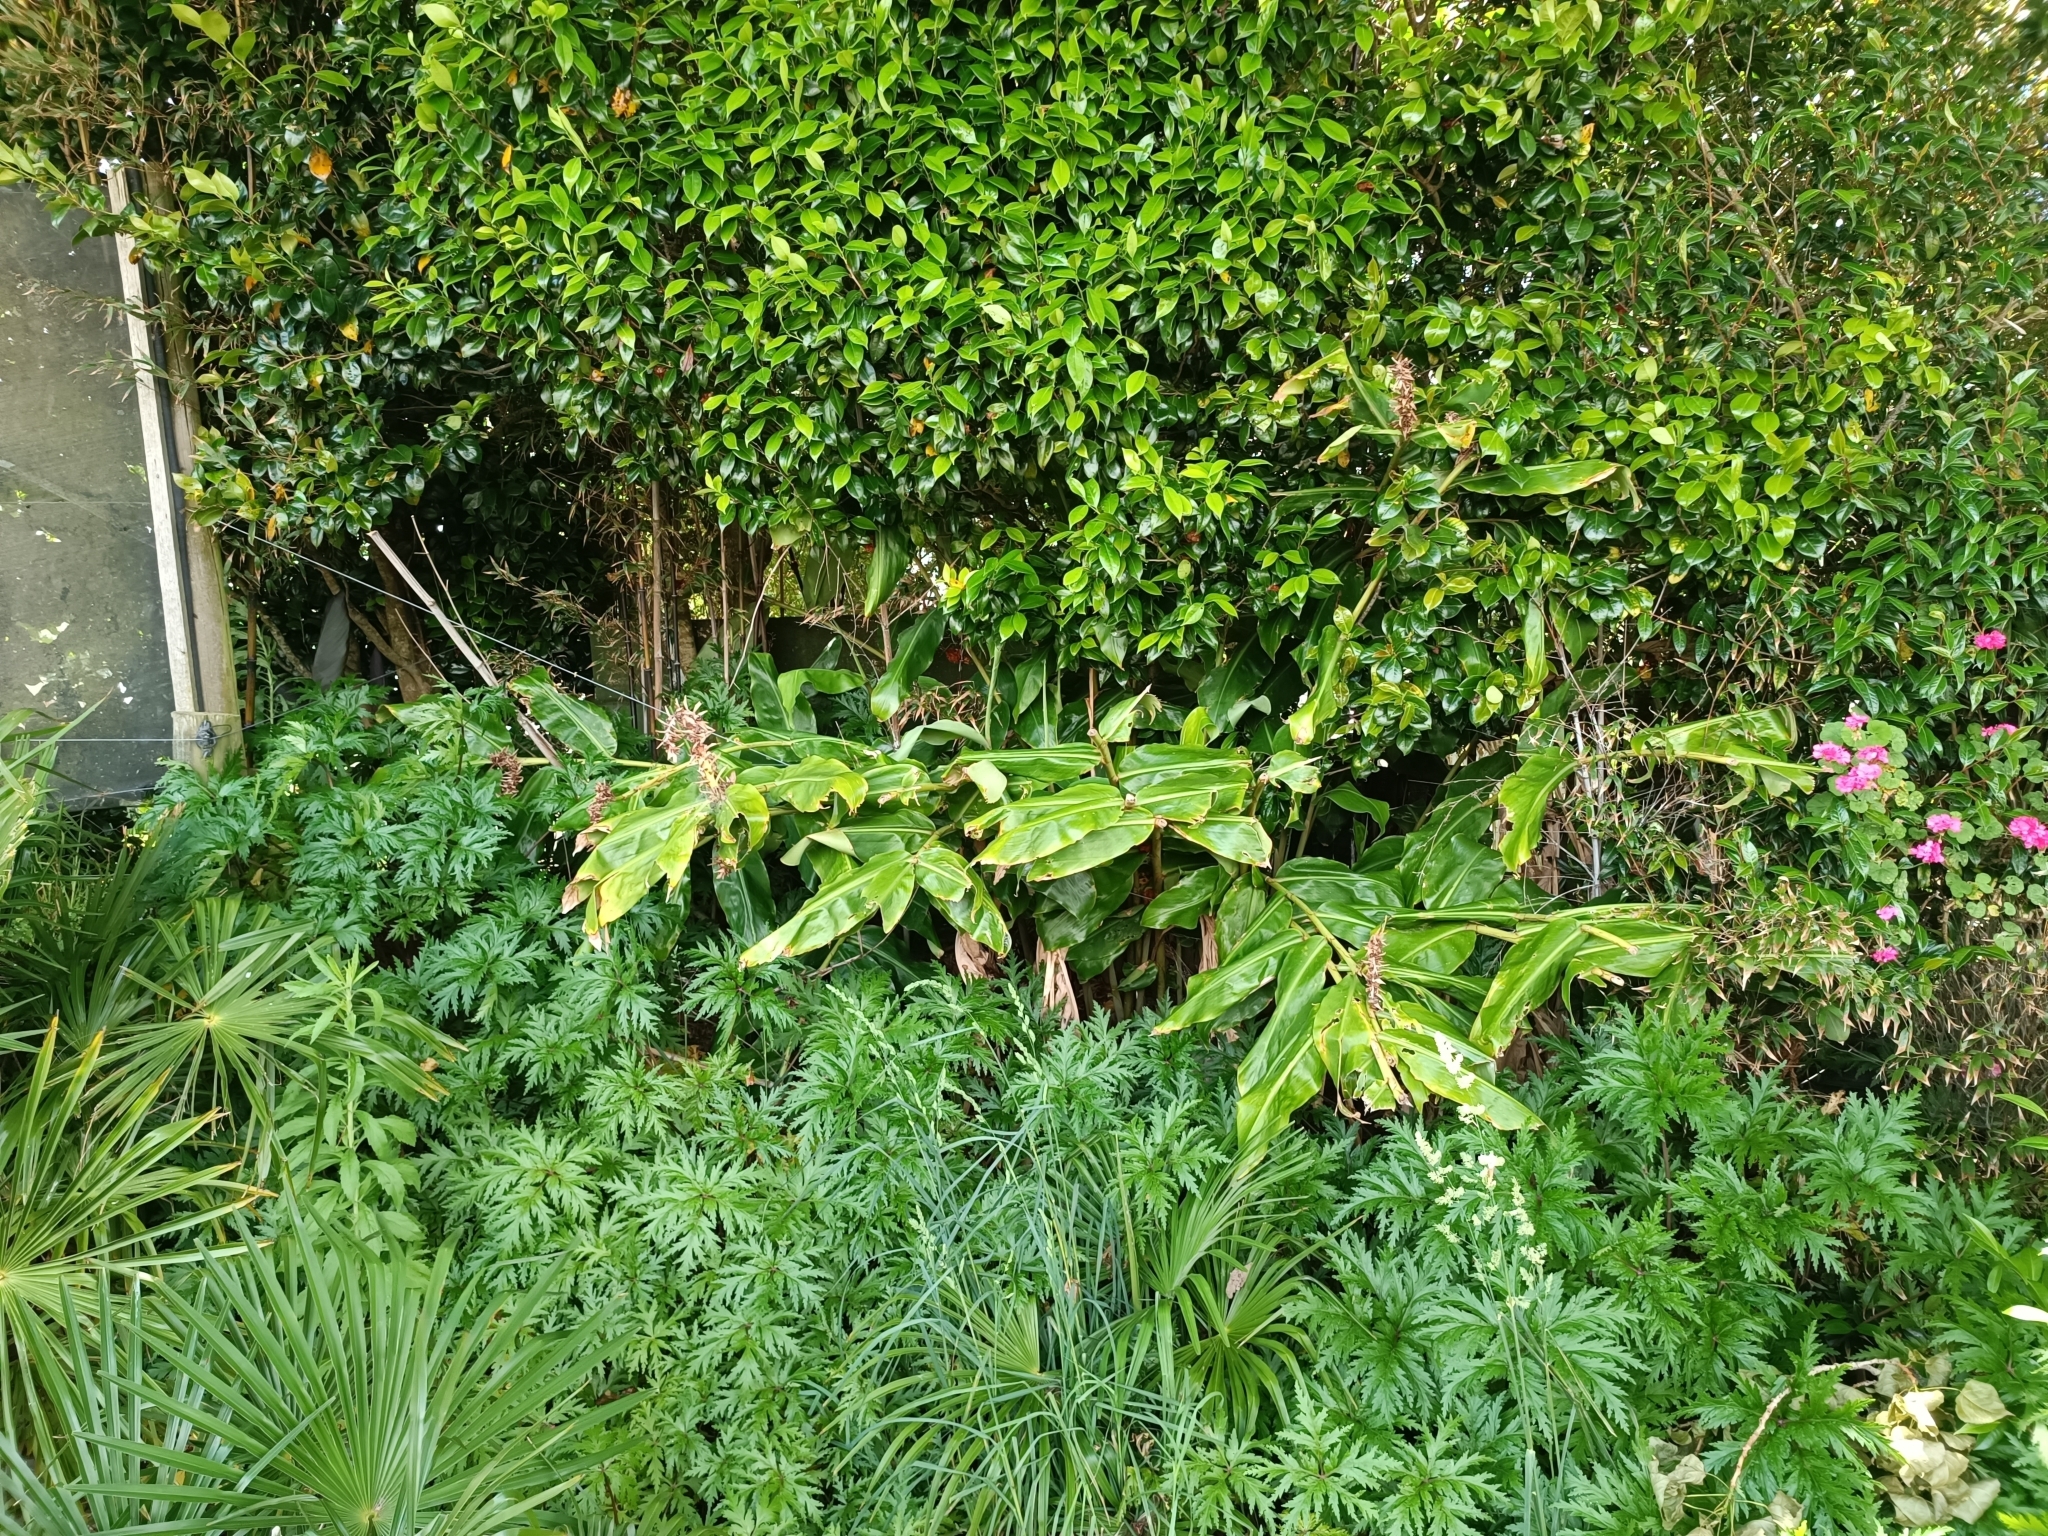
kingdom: Plantae
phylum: Tracheophyta
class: Liliopsida
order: Zingiberales
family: Zingiberaceae
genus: Hedychium
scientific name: Hedychium gardnerianum
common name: Himalayan ginger
